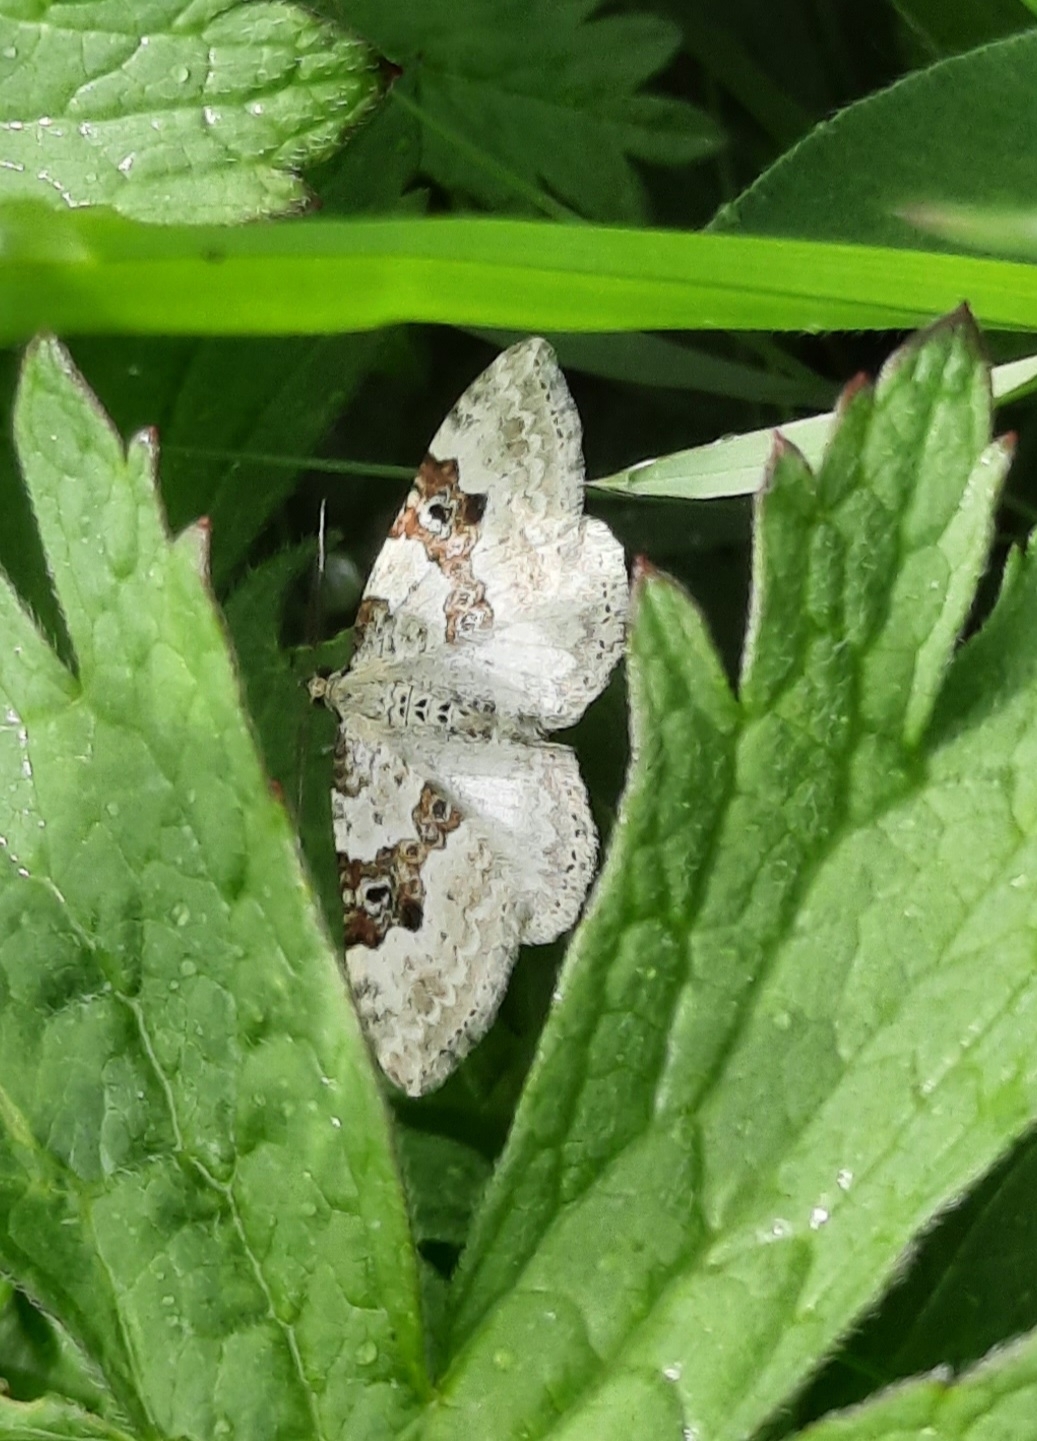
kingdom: Animalia
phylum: Arthropoda
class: Insecta
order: Lepidoptera
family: Geometridae
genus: Xanthorhoe
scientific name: Xanthorhoe montanata
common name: Silver-ground carpet
